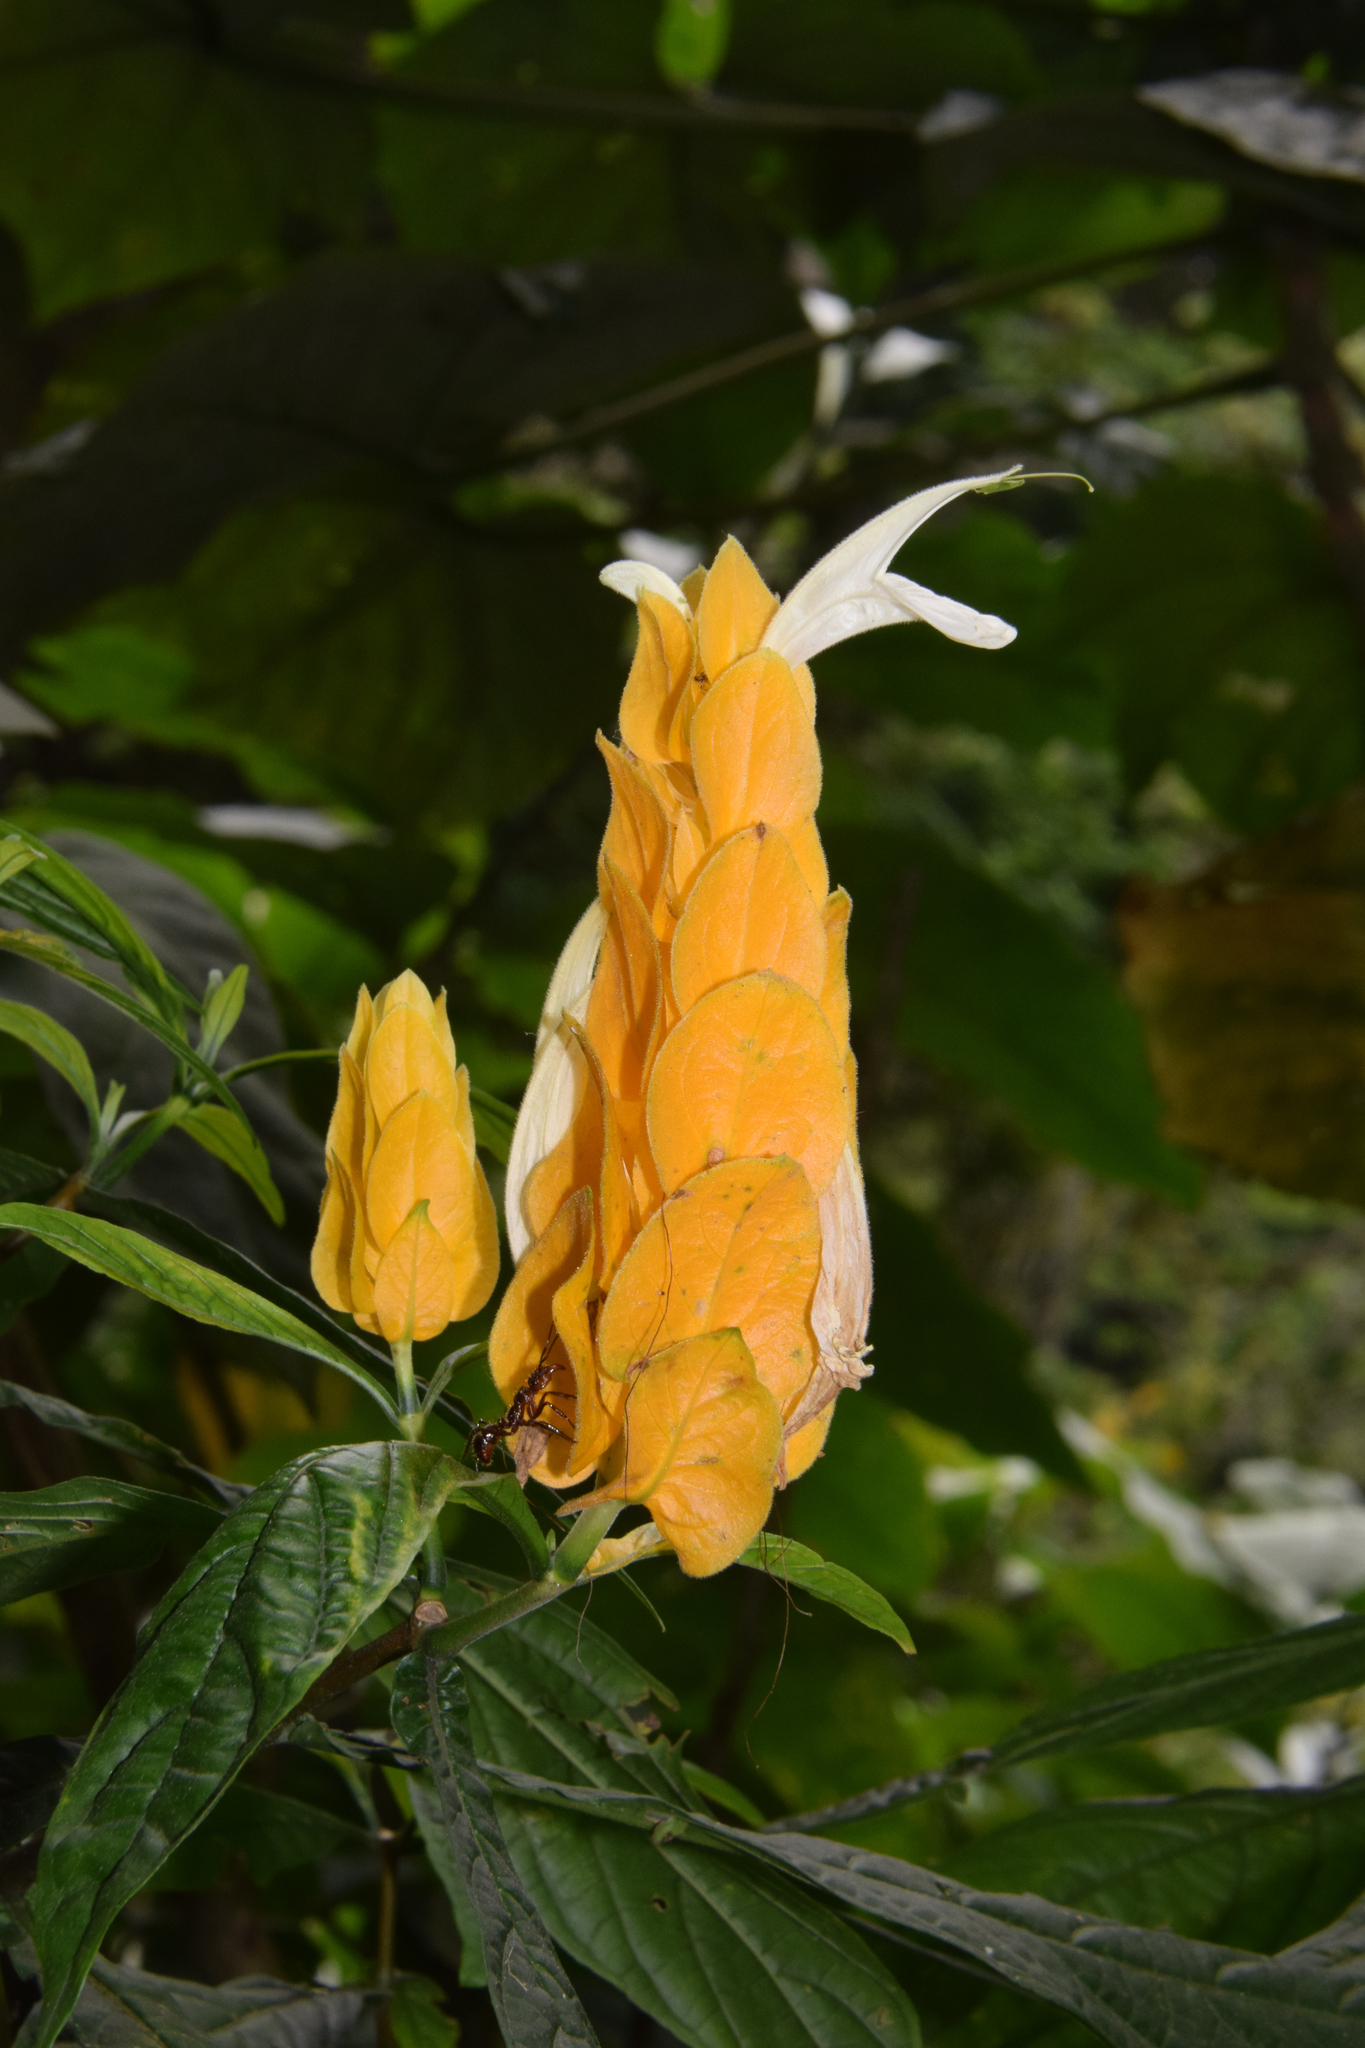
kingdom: Plantae
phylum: Tracheophyta
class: Magnoliopsida
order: Lamiales
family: Acanthaceae
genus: Pachystachys
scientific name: Pachystachys lutea
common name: Golden shrimp-plant
